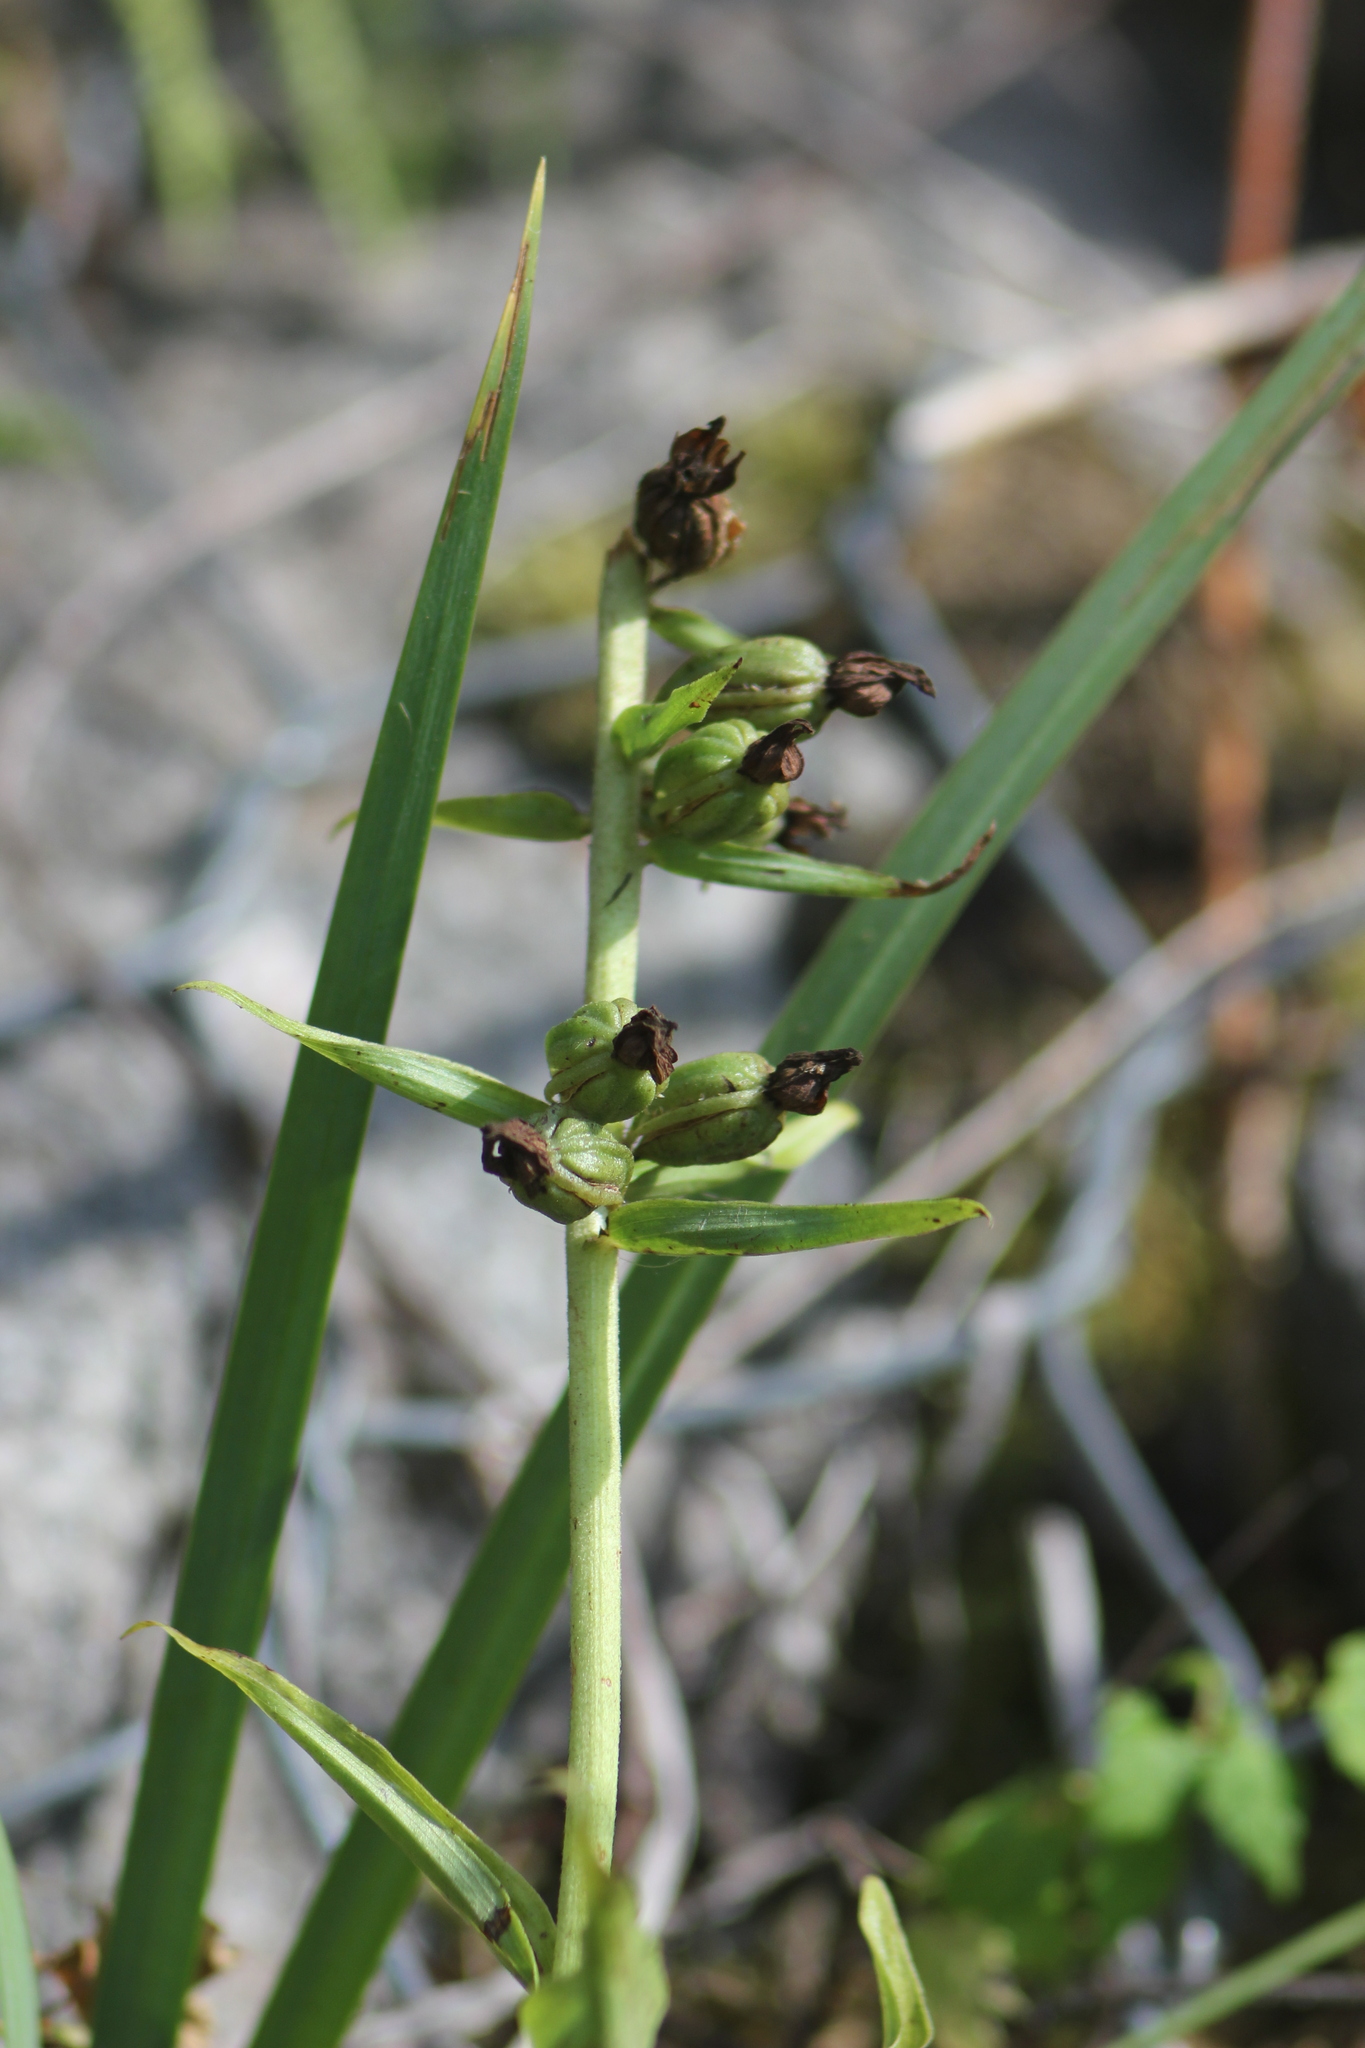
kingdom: Plantae
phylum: Tracheophyta
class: Liliopsida
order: Asparagales
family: Orchidaceae
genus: Epipactis
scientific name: Epipactis helleborine
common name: Broad-leaved helleborine
